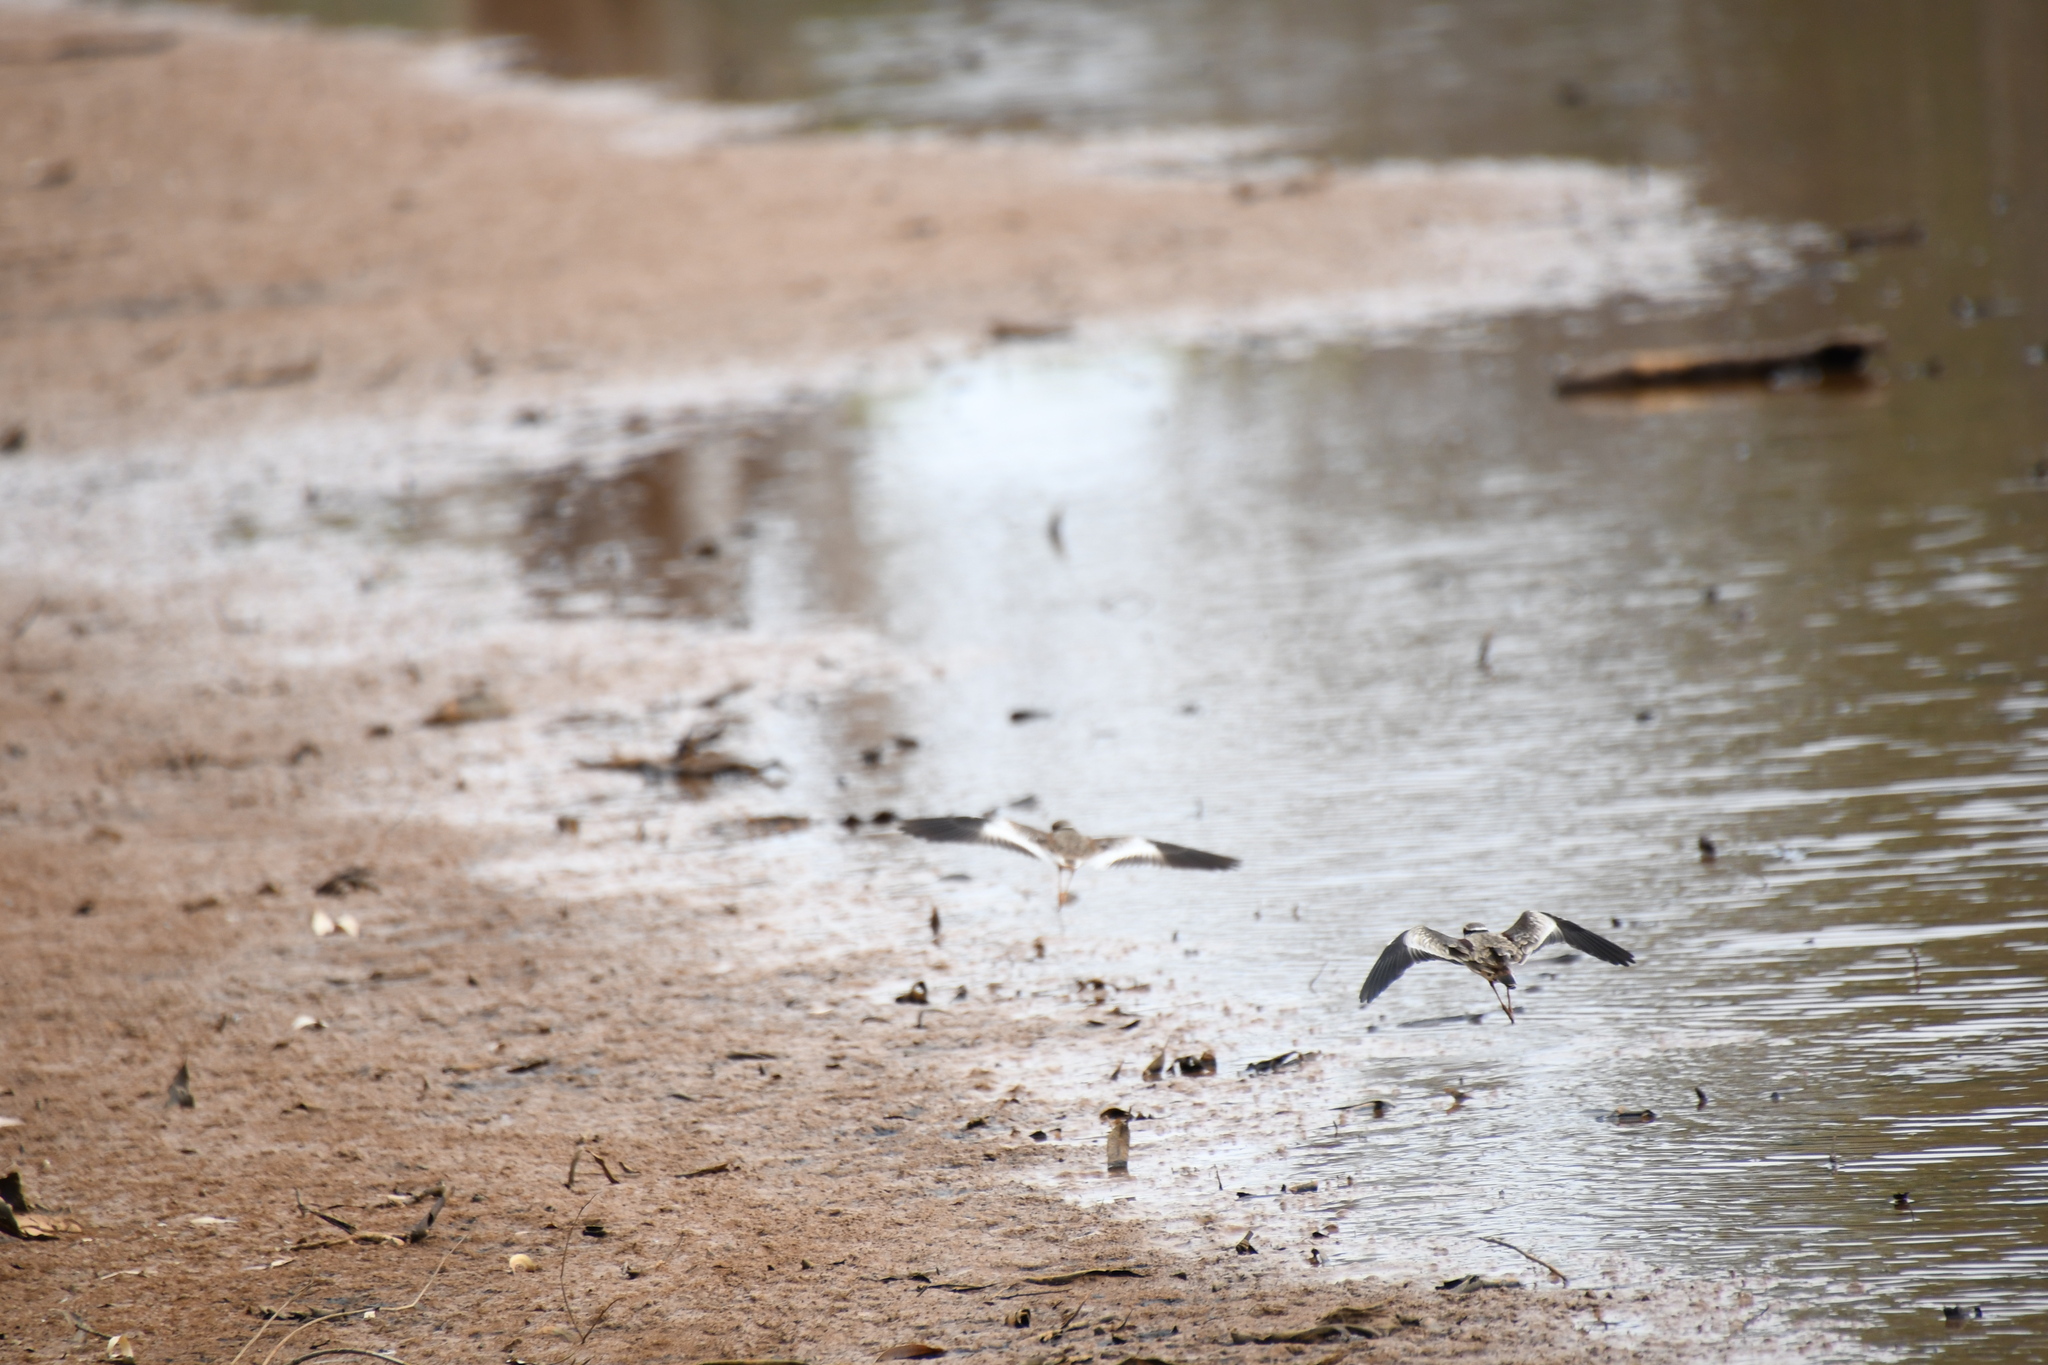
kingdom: Animalia
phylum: Chordata
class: Aves
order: Charadriiformes
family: Charadriidae
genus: Elseyornis
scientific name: Elseyornis melanops
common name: Black-fronted dotterel
